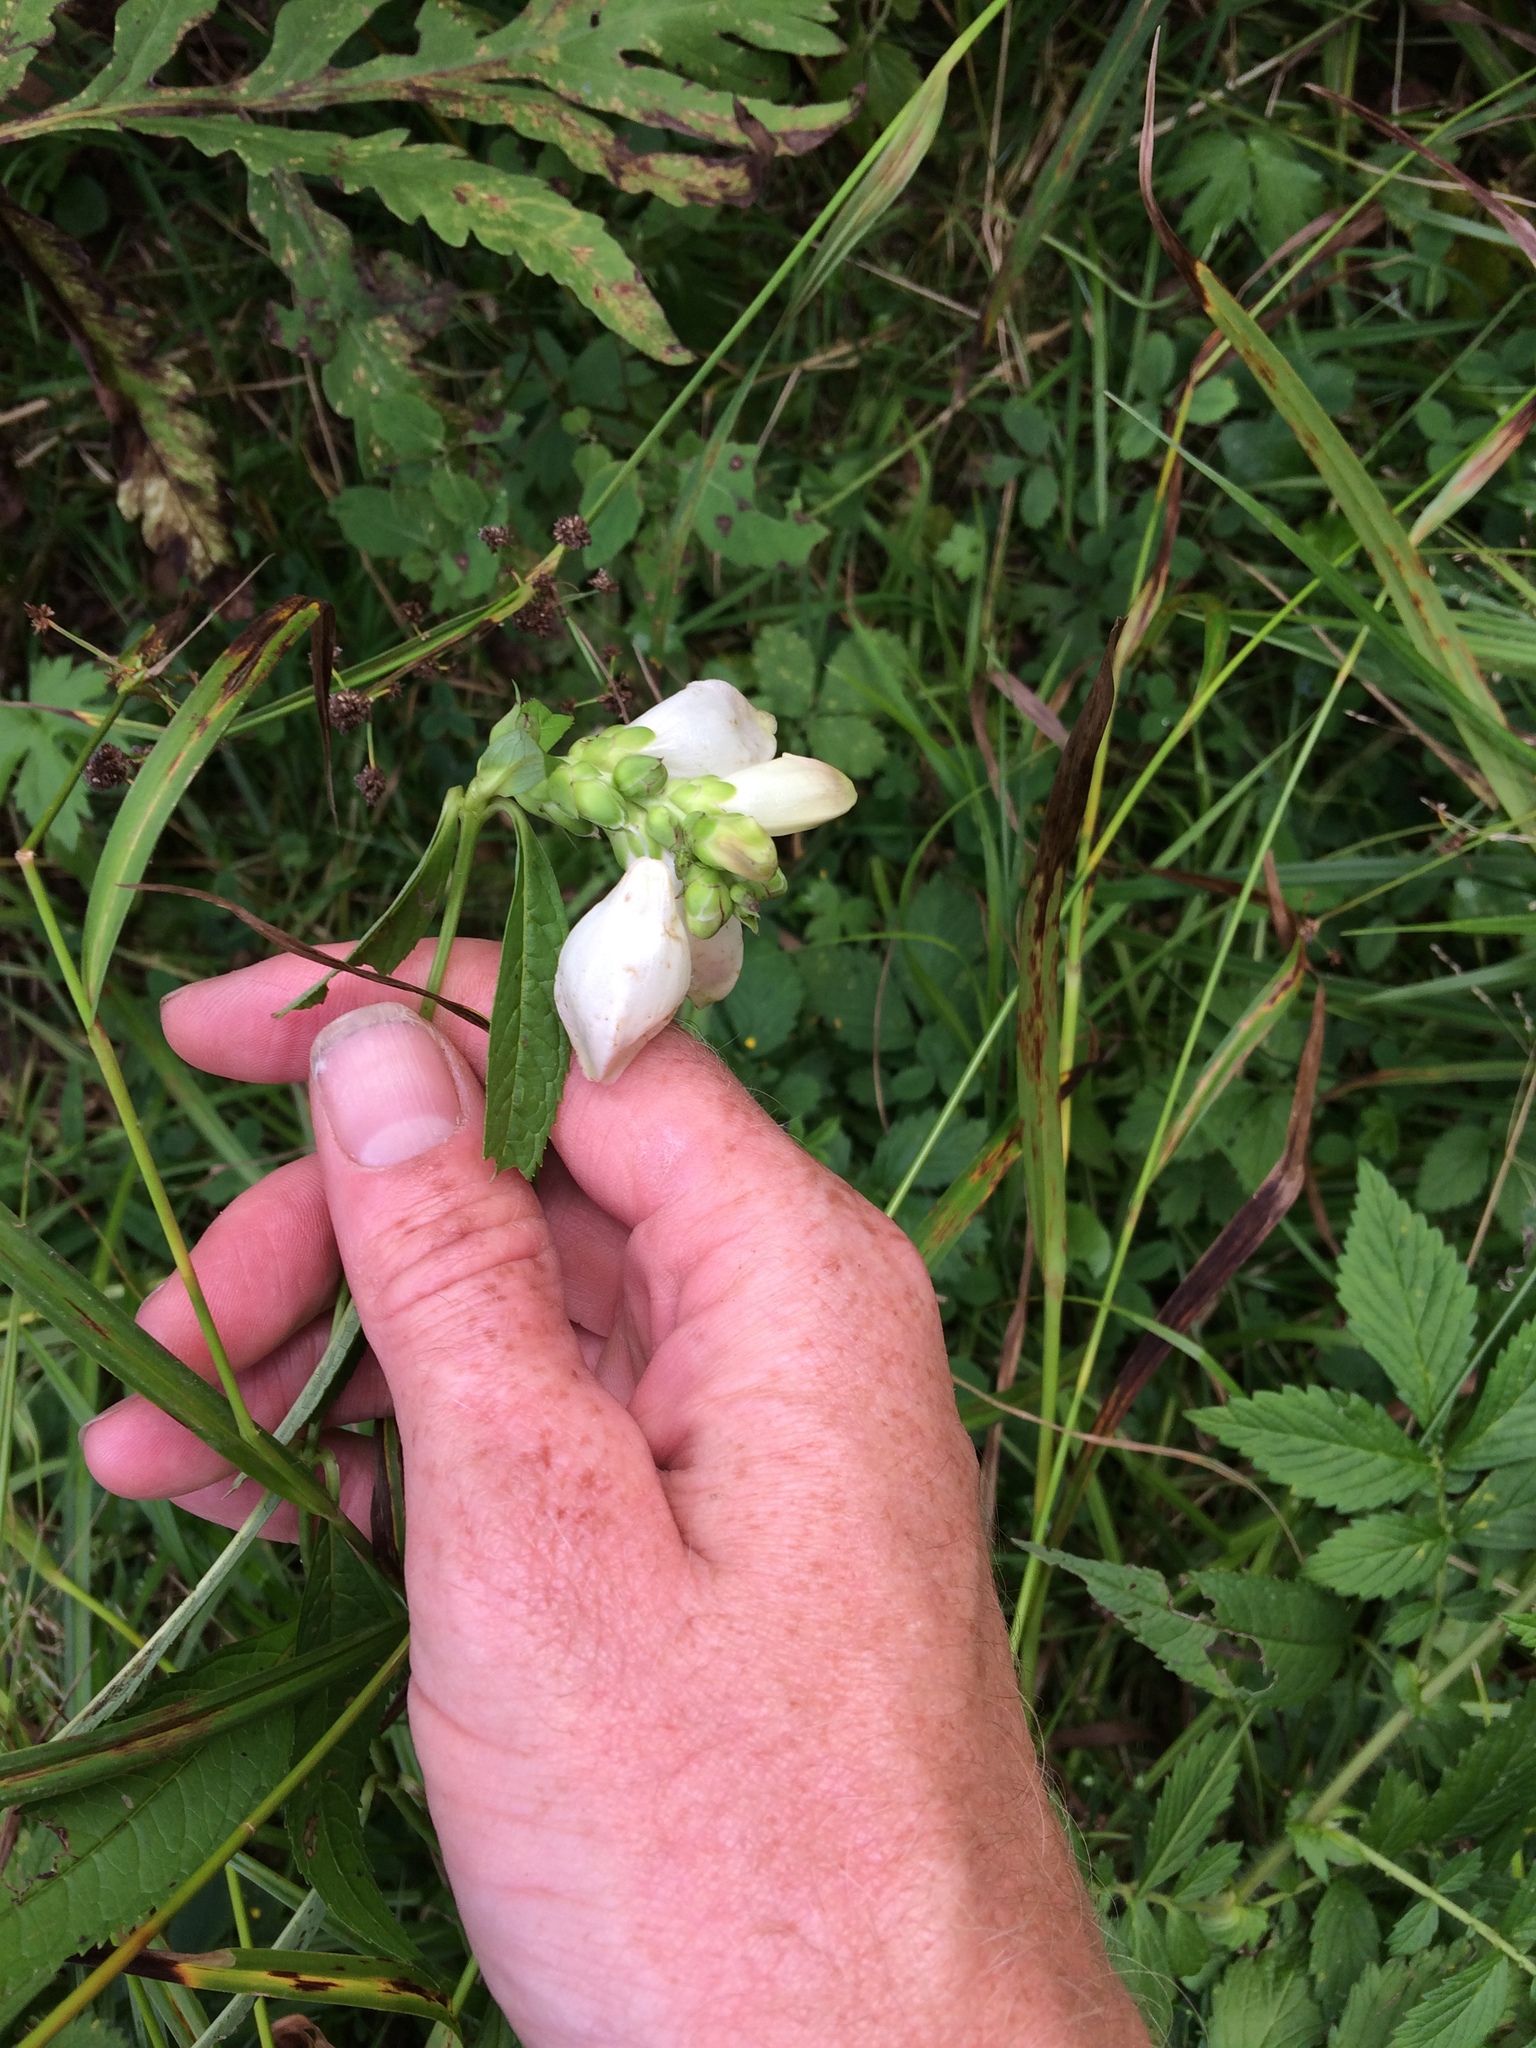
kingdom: Plantae
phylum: Tracheophyta
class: Magnoliopsida
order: Lamiales
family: Plantaginaceae
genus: Chelone
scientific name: Chelone glabra
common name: Snakehead
